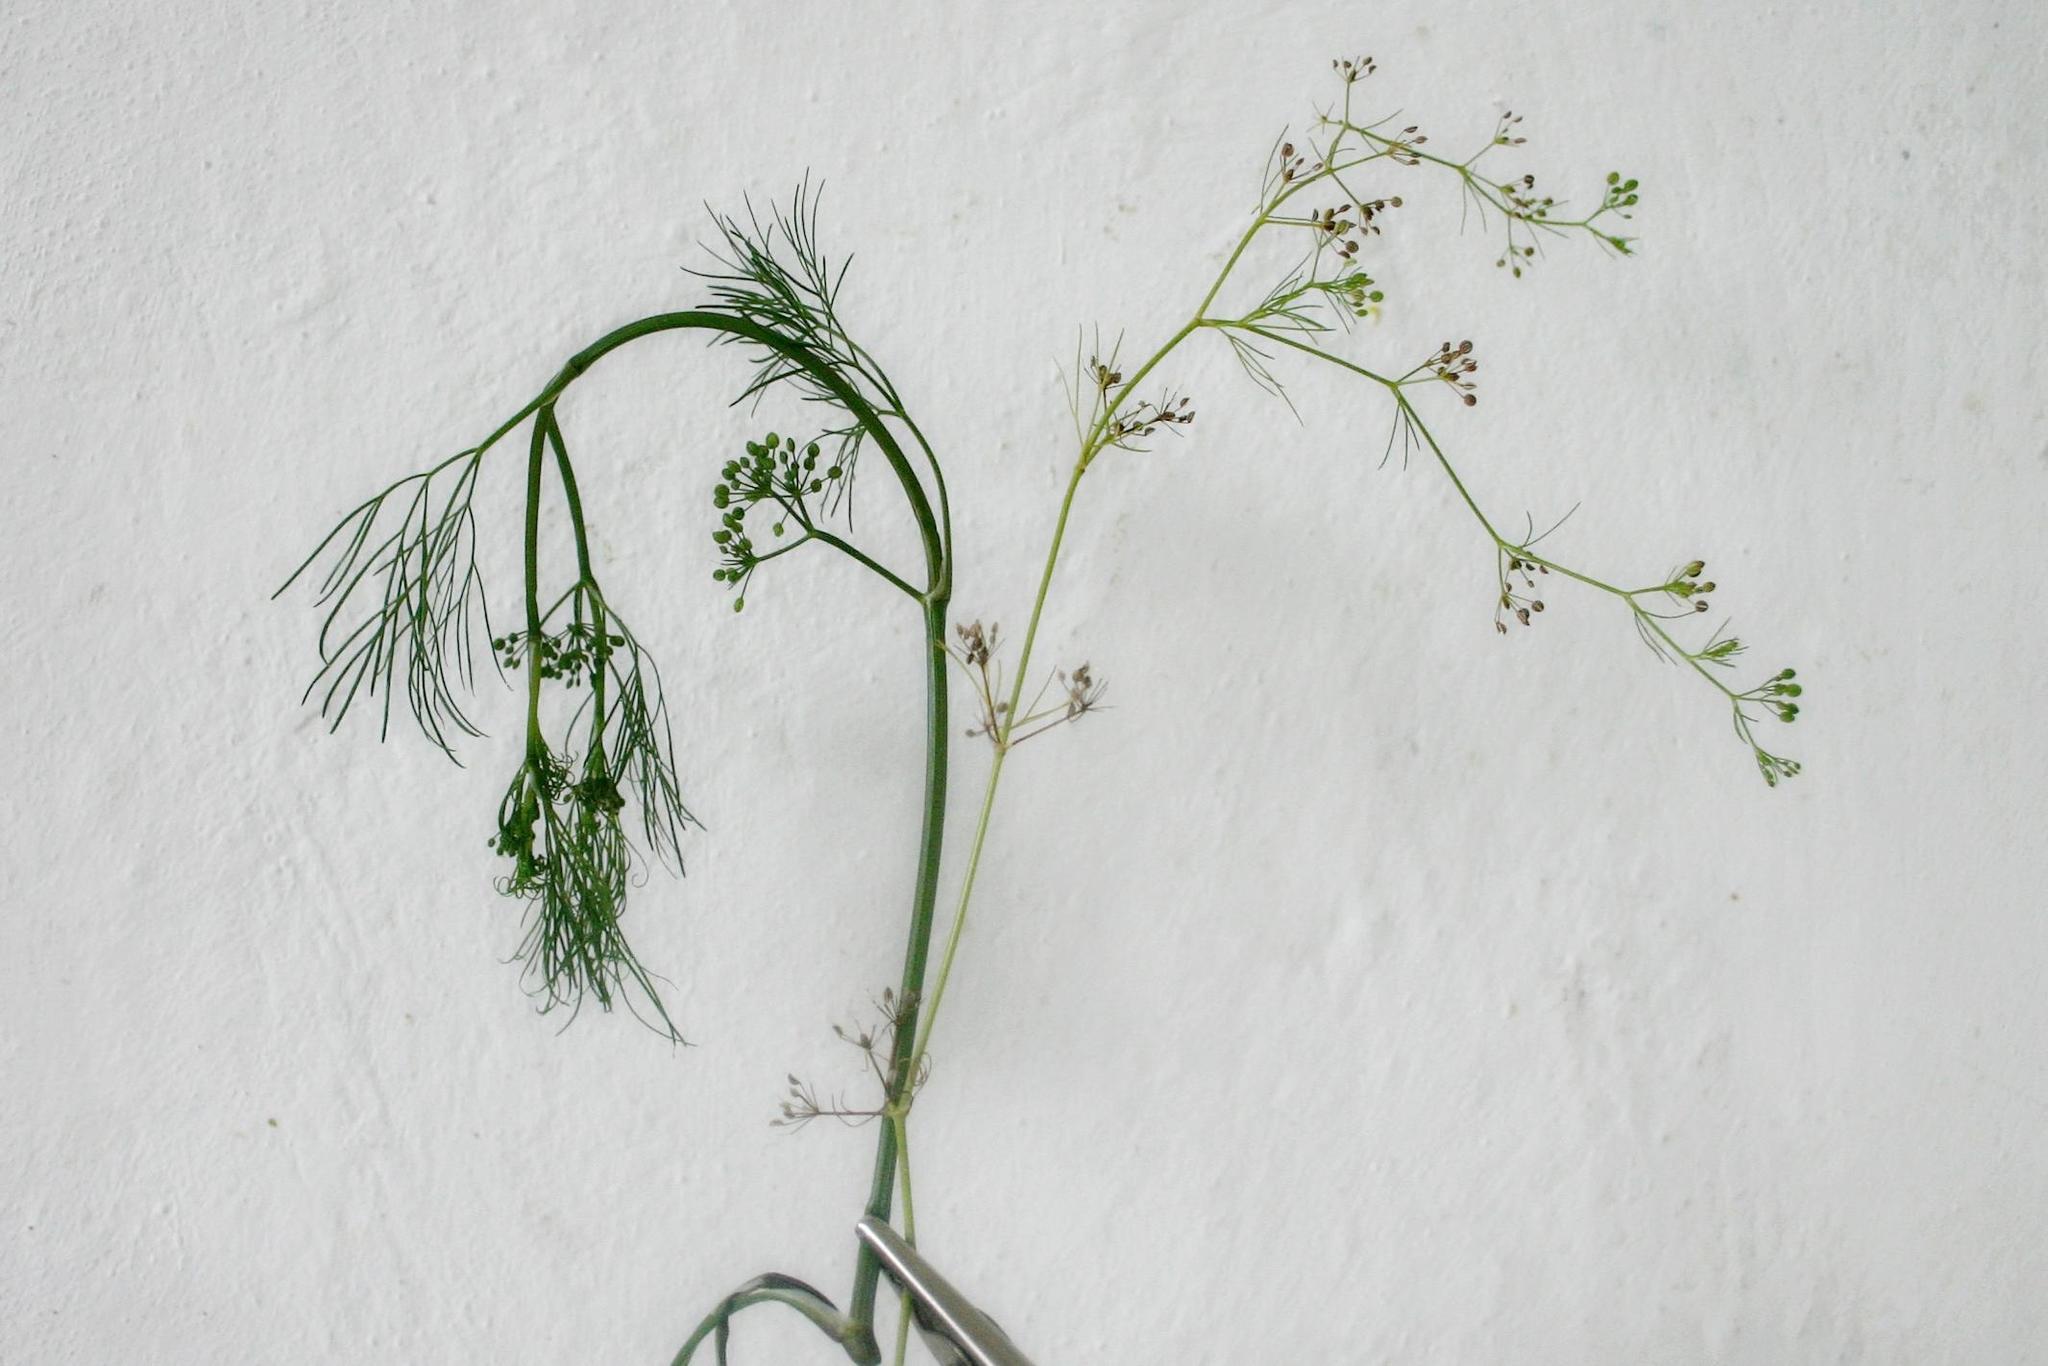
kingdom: Plantae
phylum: Tracheophyta
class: Magnoliopsida
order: Apiales
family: Apiaceae
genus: Cyclospermum
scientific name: Cyclospermum leptophyllum
